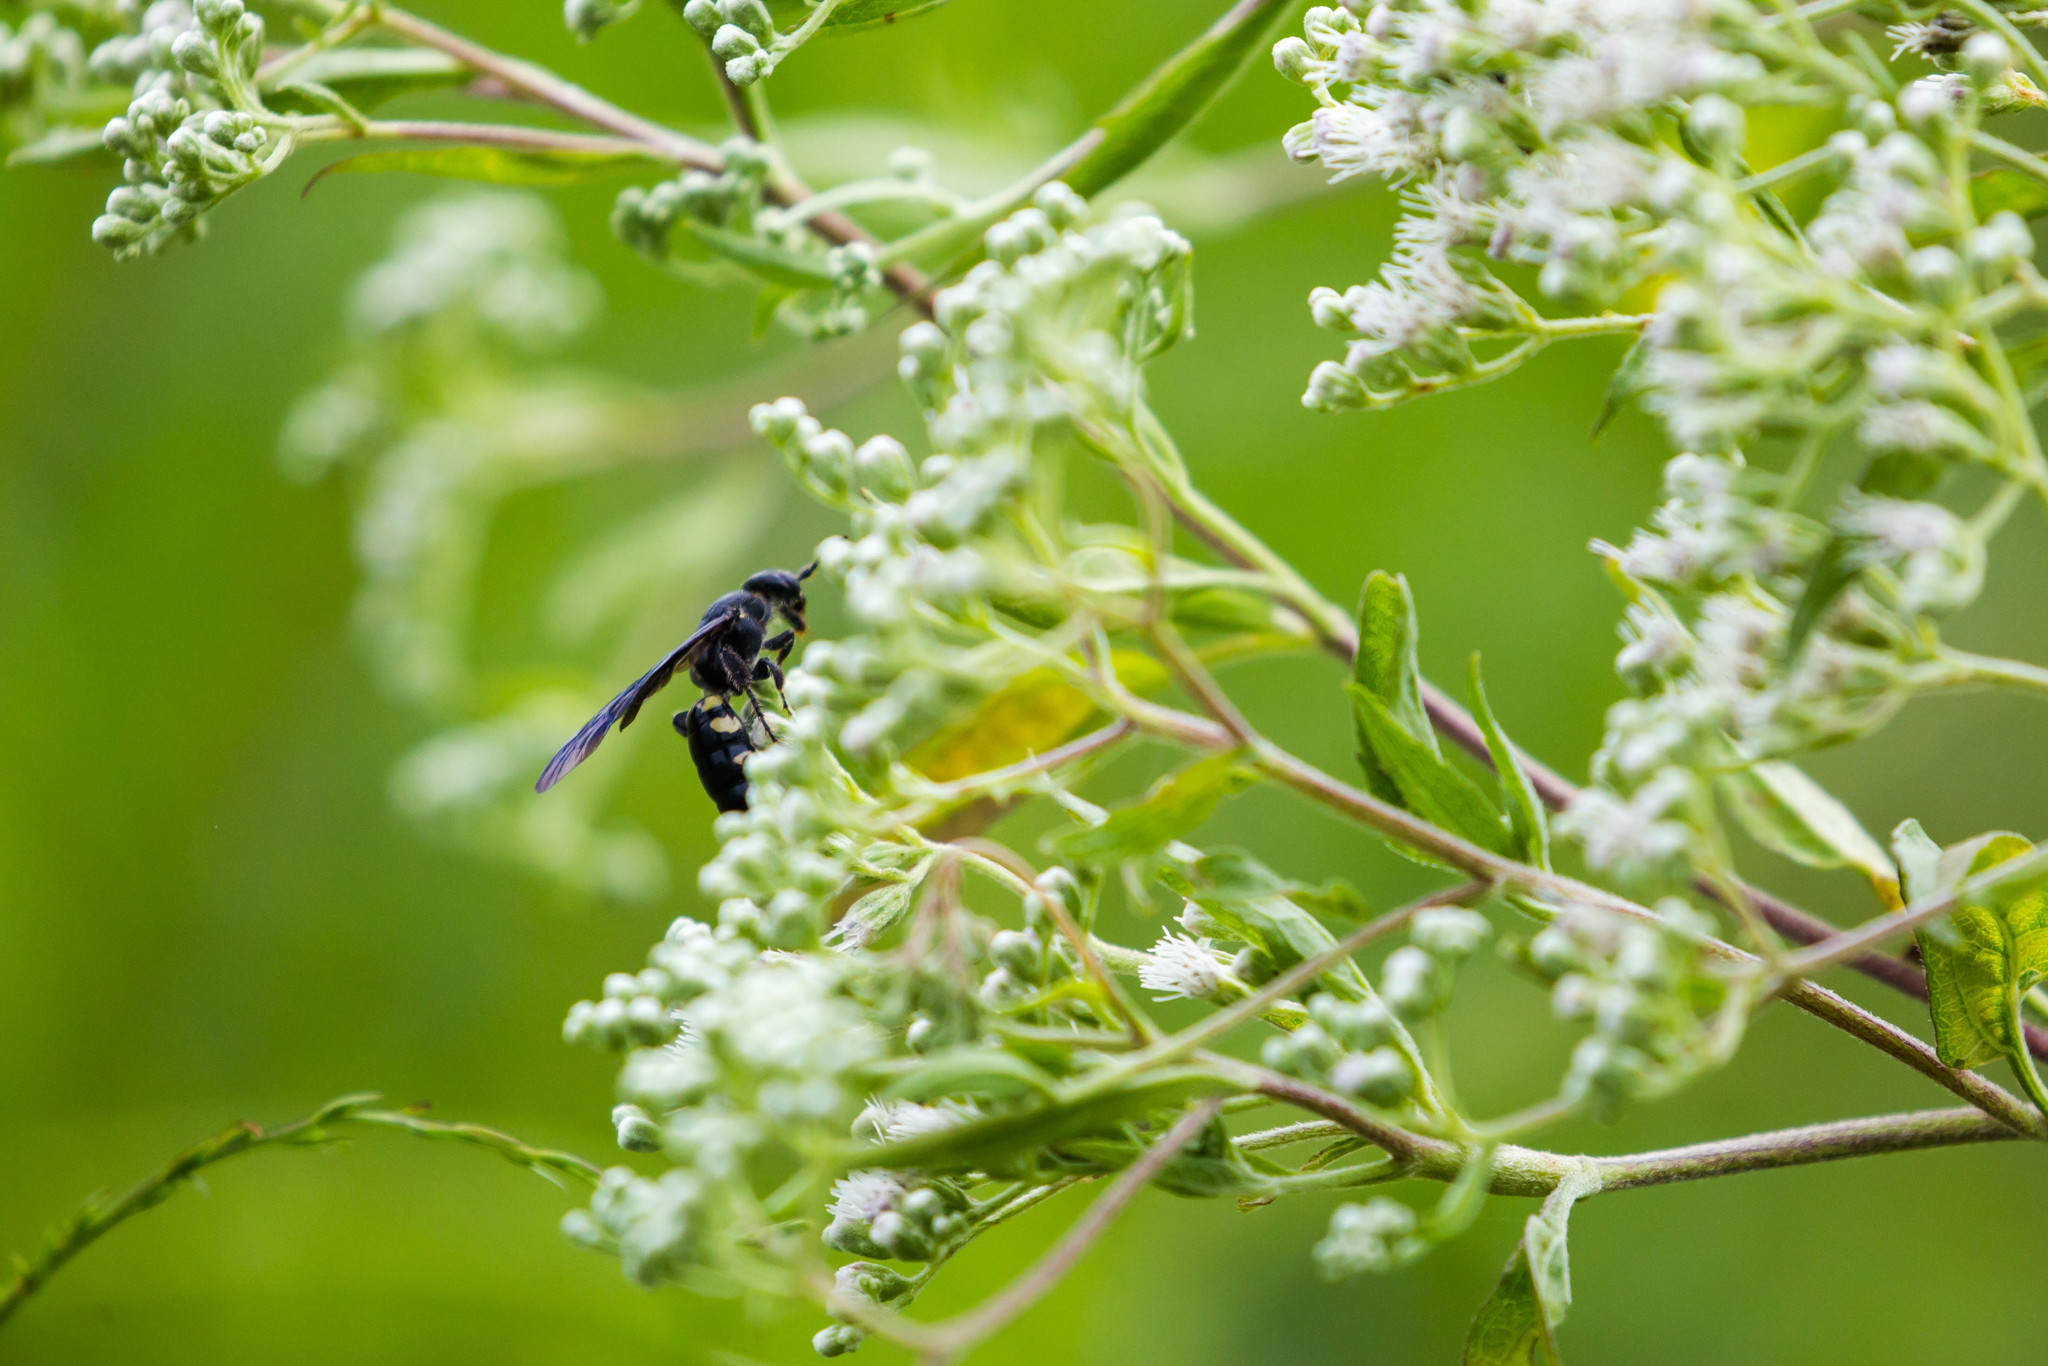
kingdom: Animalia
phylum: Arthropoda
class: Insecta
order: Hymenoptera
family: Tiphiidae
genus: Myzinum
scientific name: Myzinum obscurum
